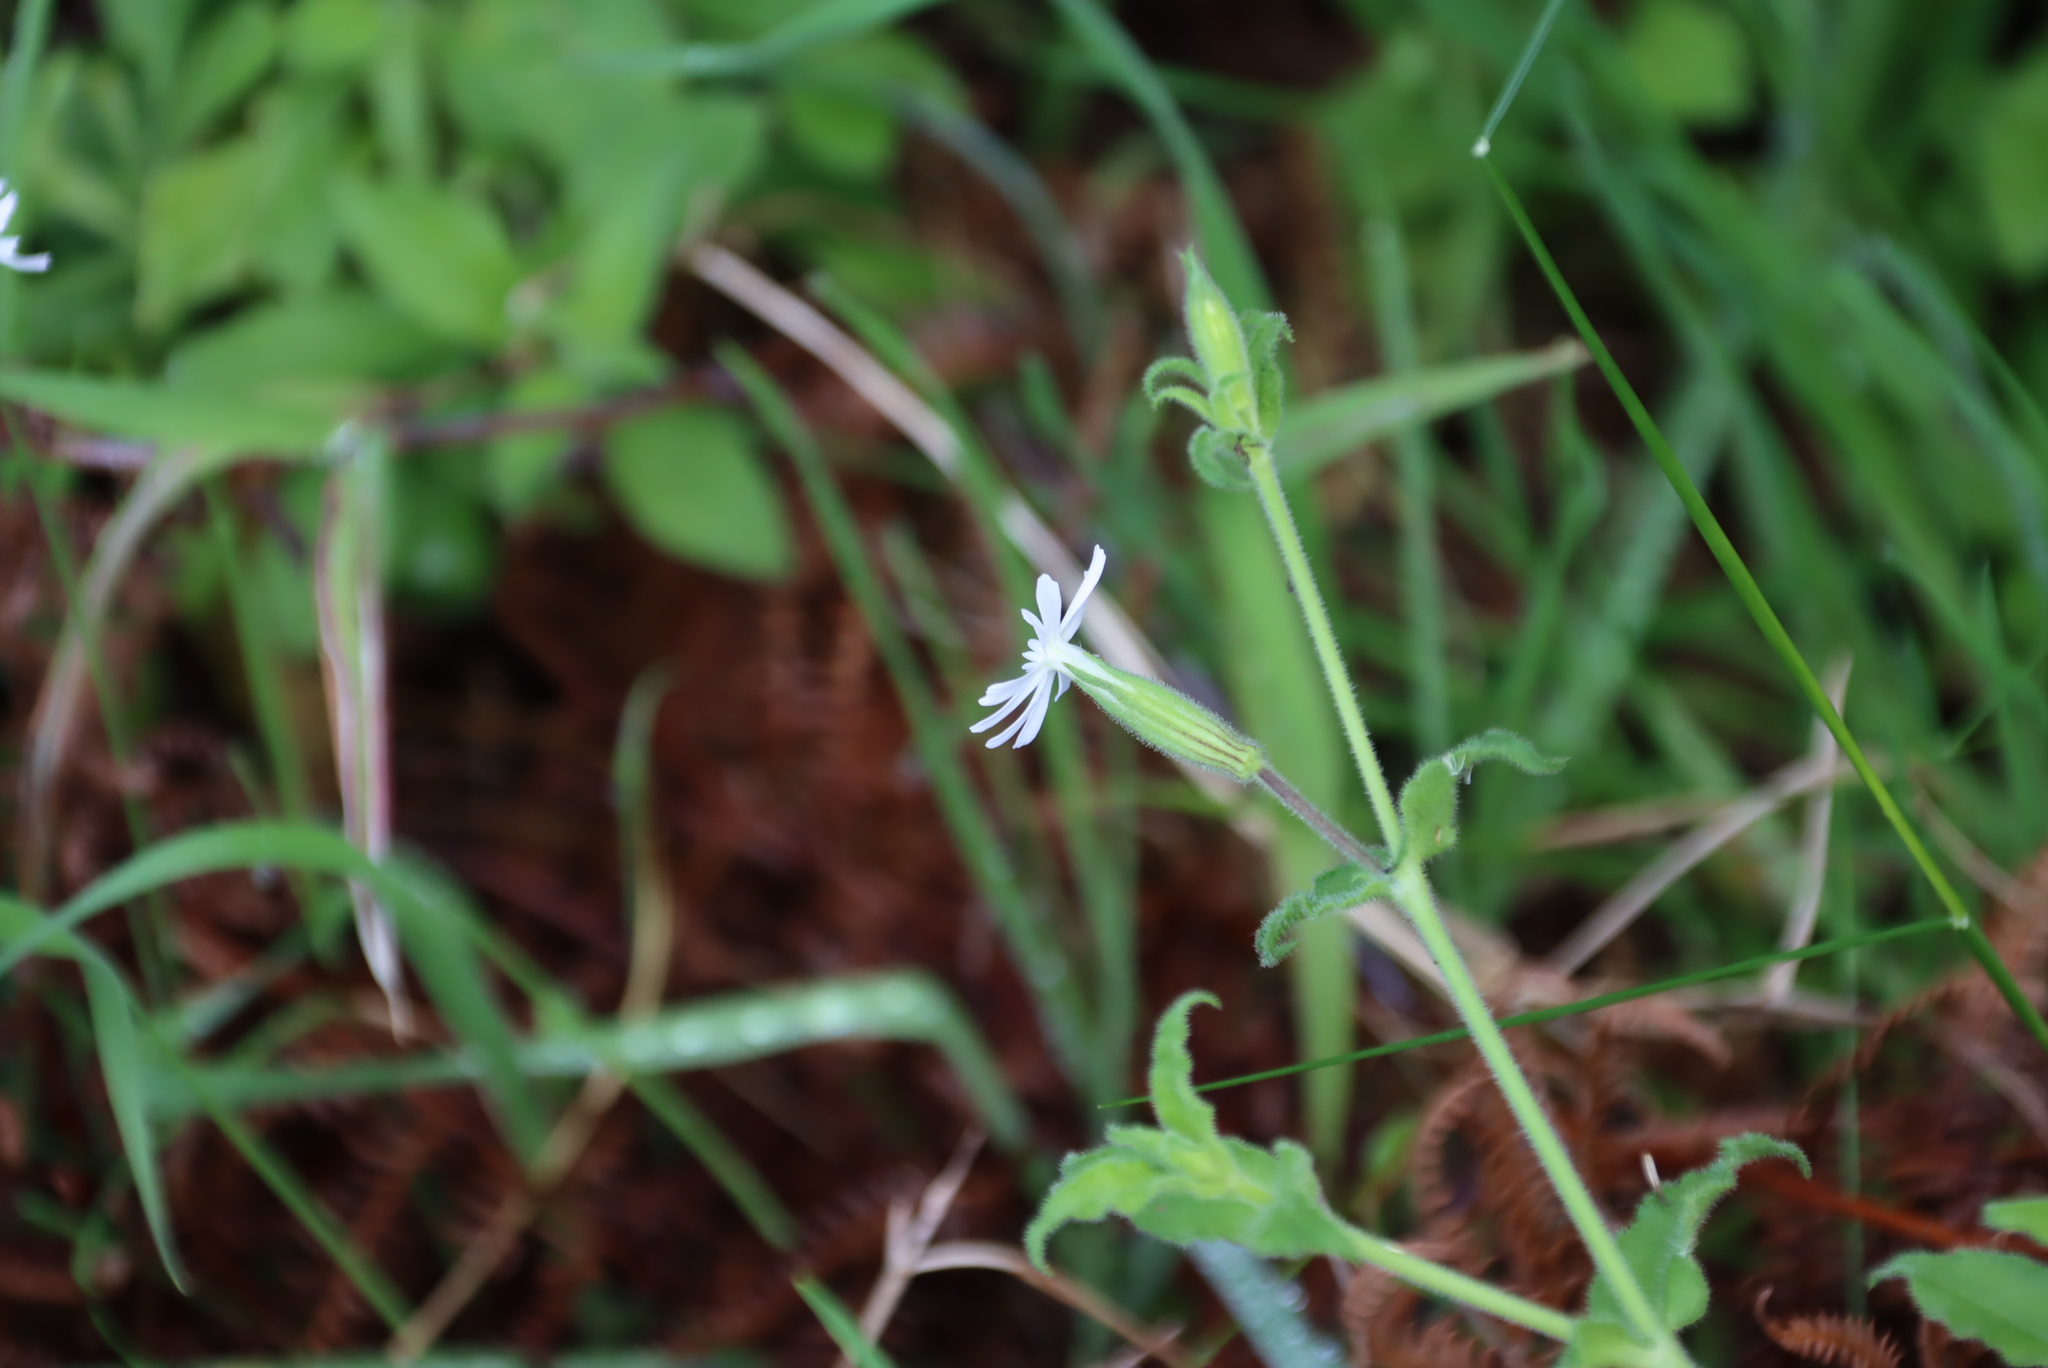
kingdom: Plantae
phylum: Tracheophyta
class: Magnoliopsida
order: Caryophyllales
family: Caryophyllaceae
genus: Silene
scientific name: Silene undulata
